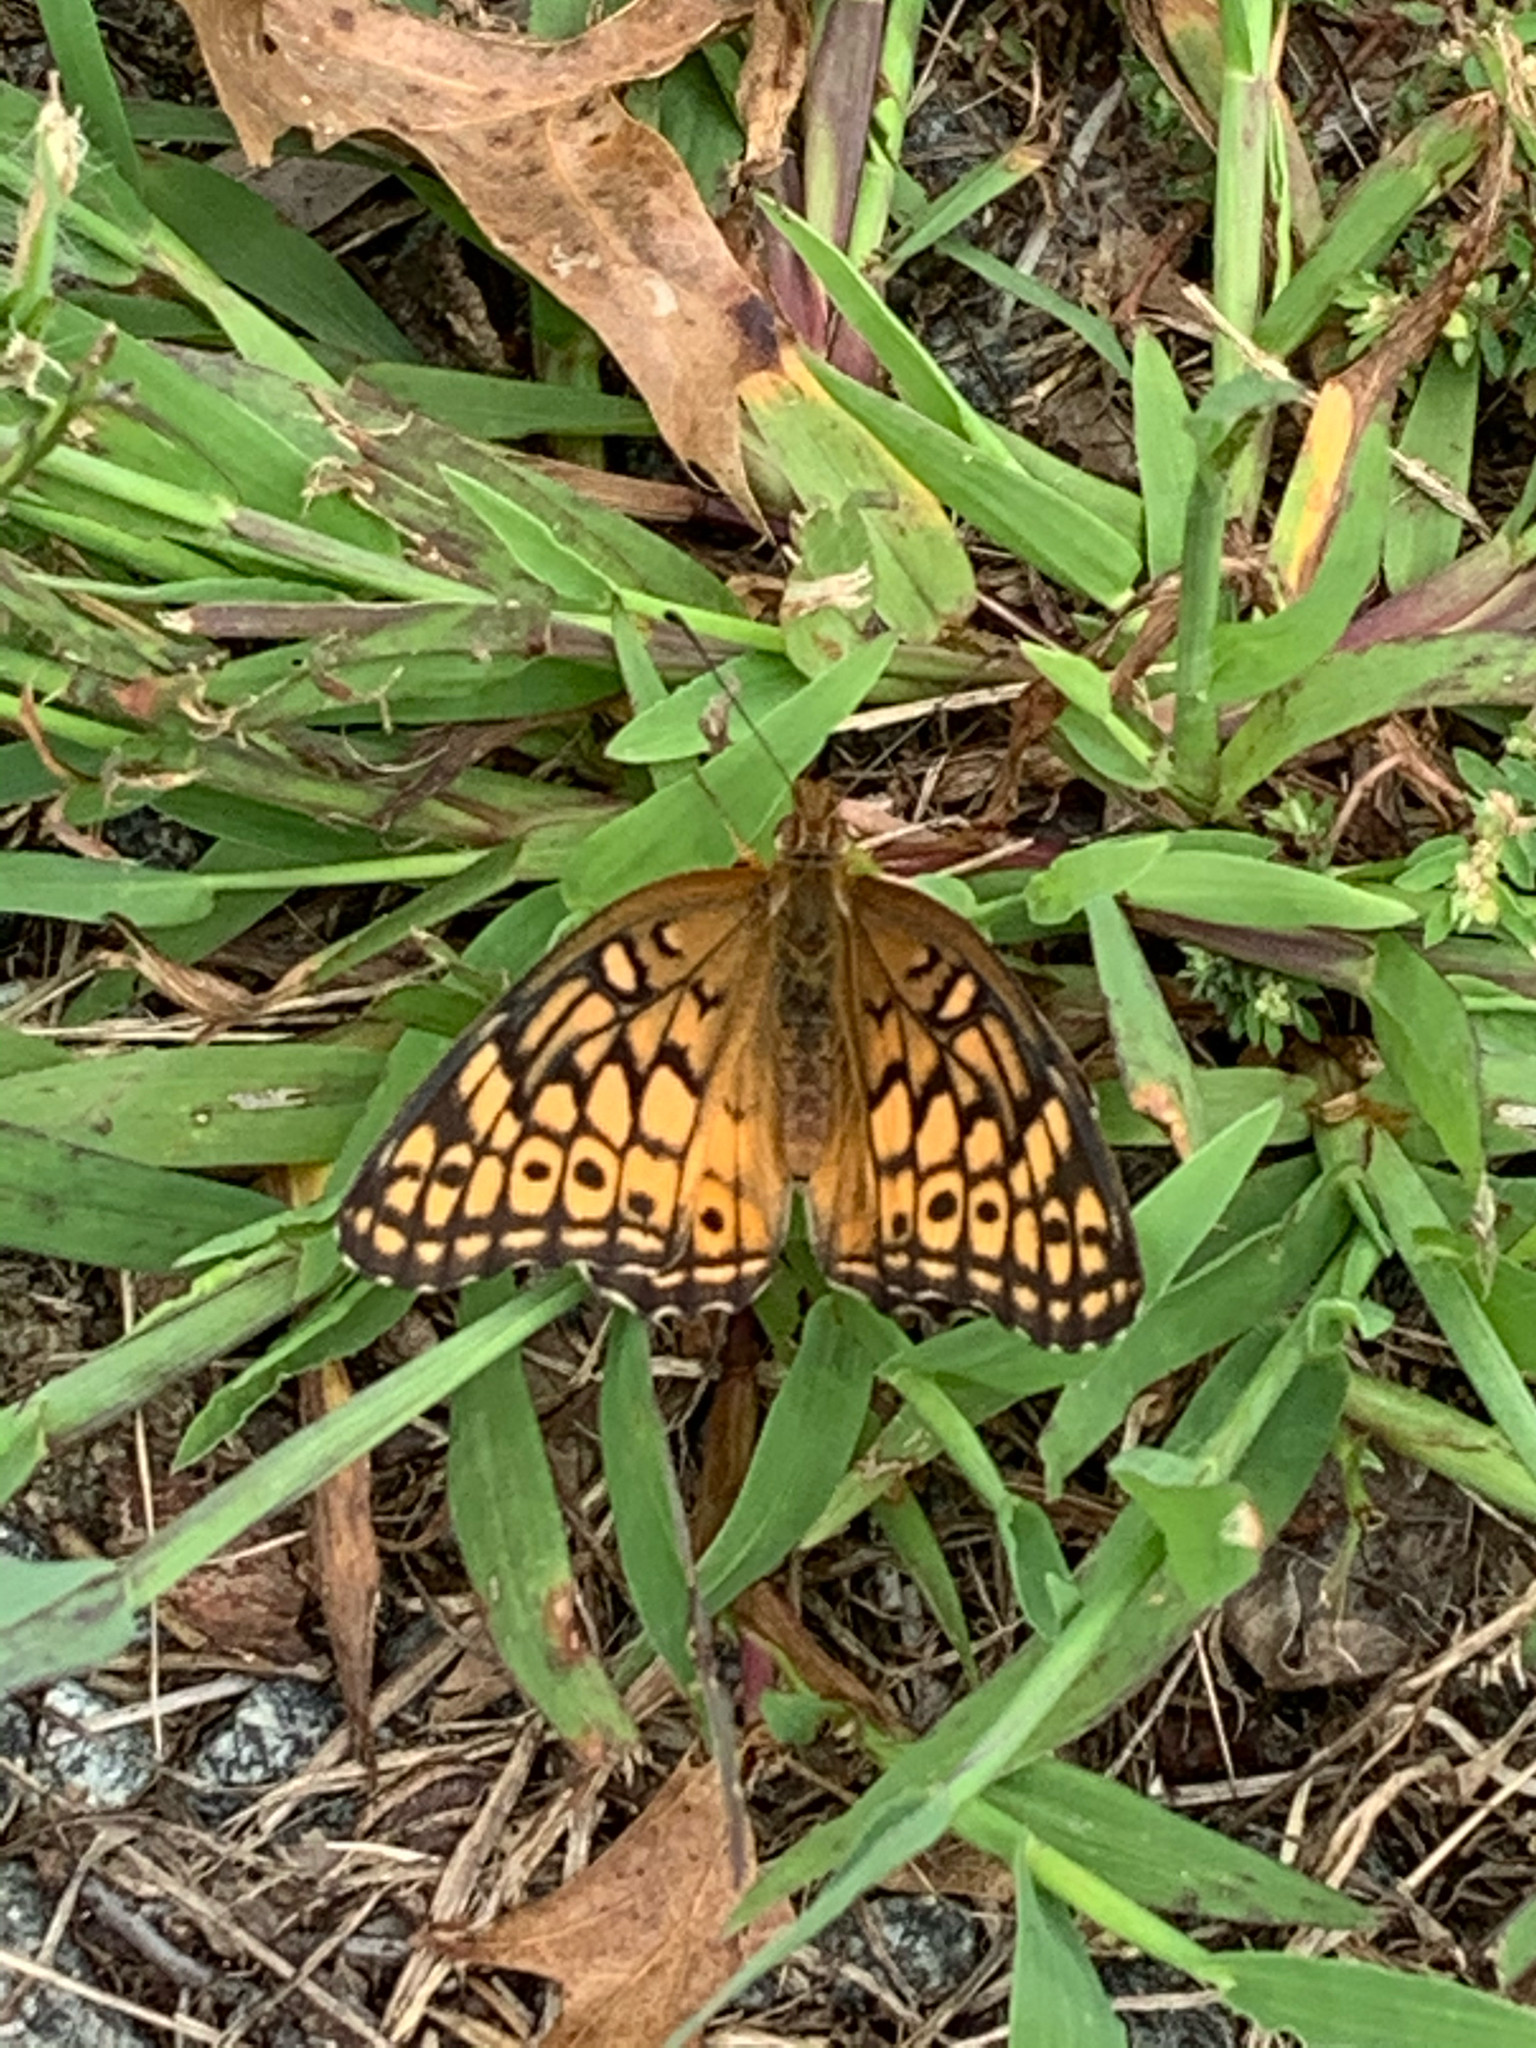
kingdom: Animalia
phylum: Arthropoda
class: Insecta
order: Lepidoptera
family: Nymphalidae
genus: Euptoieta
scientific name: Euptoieta claudia
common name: Variegated fritillary
